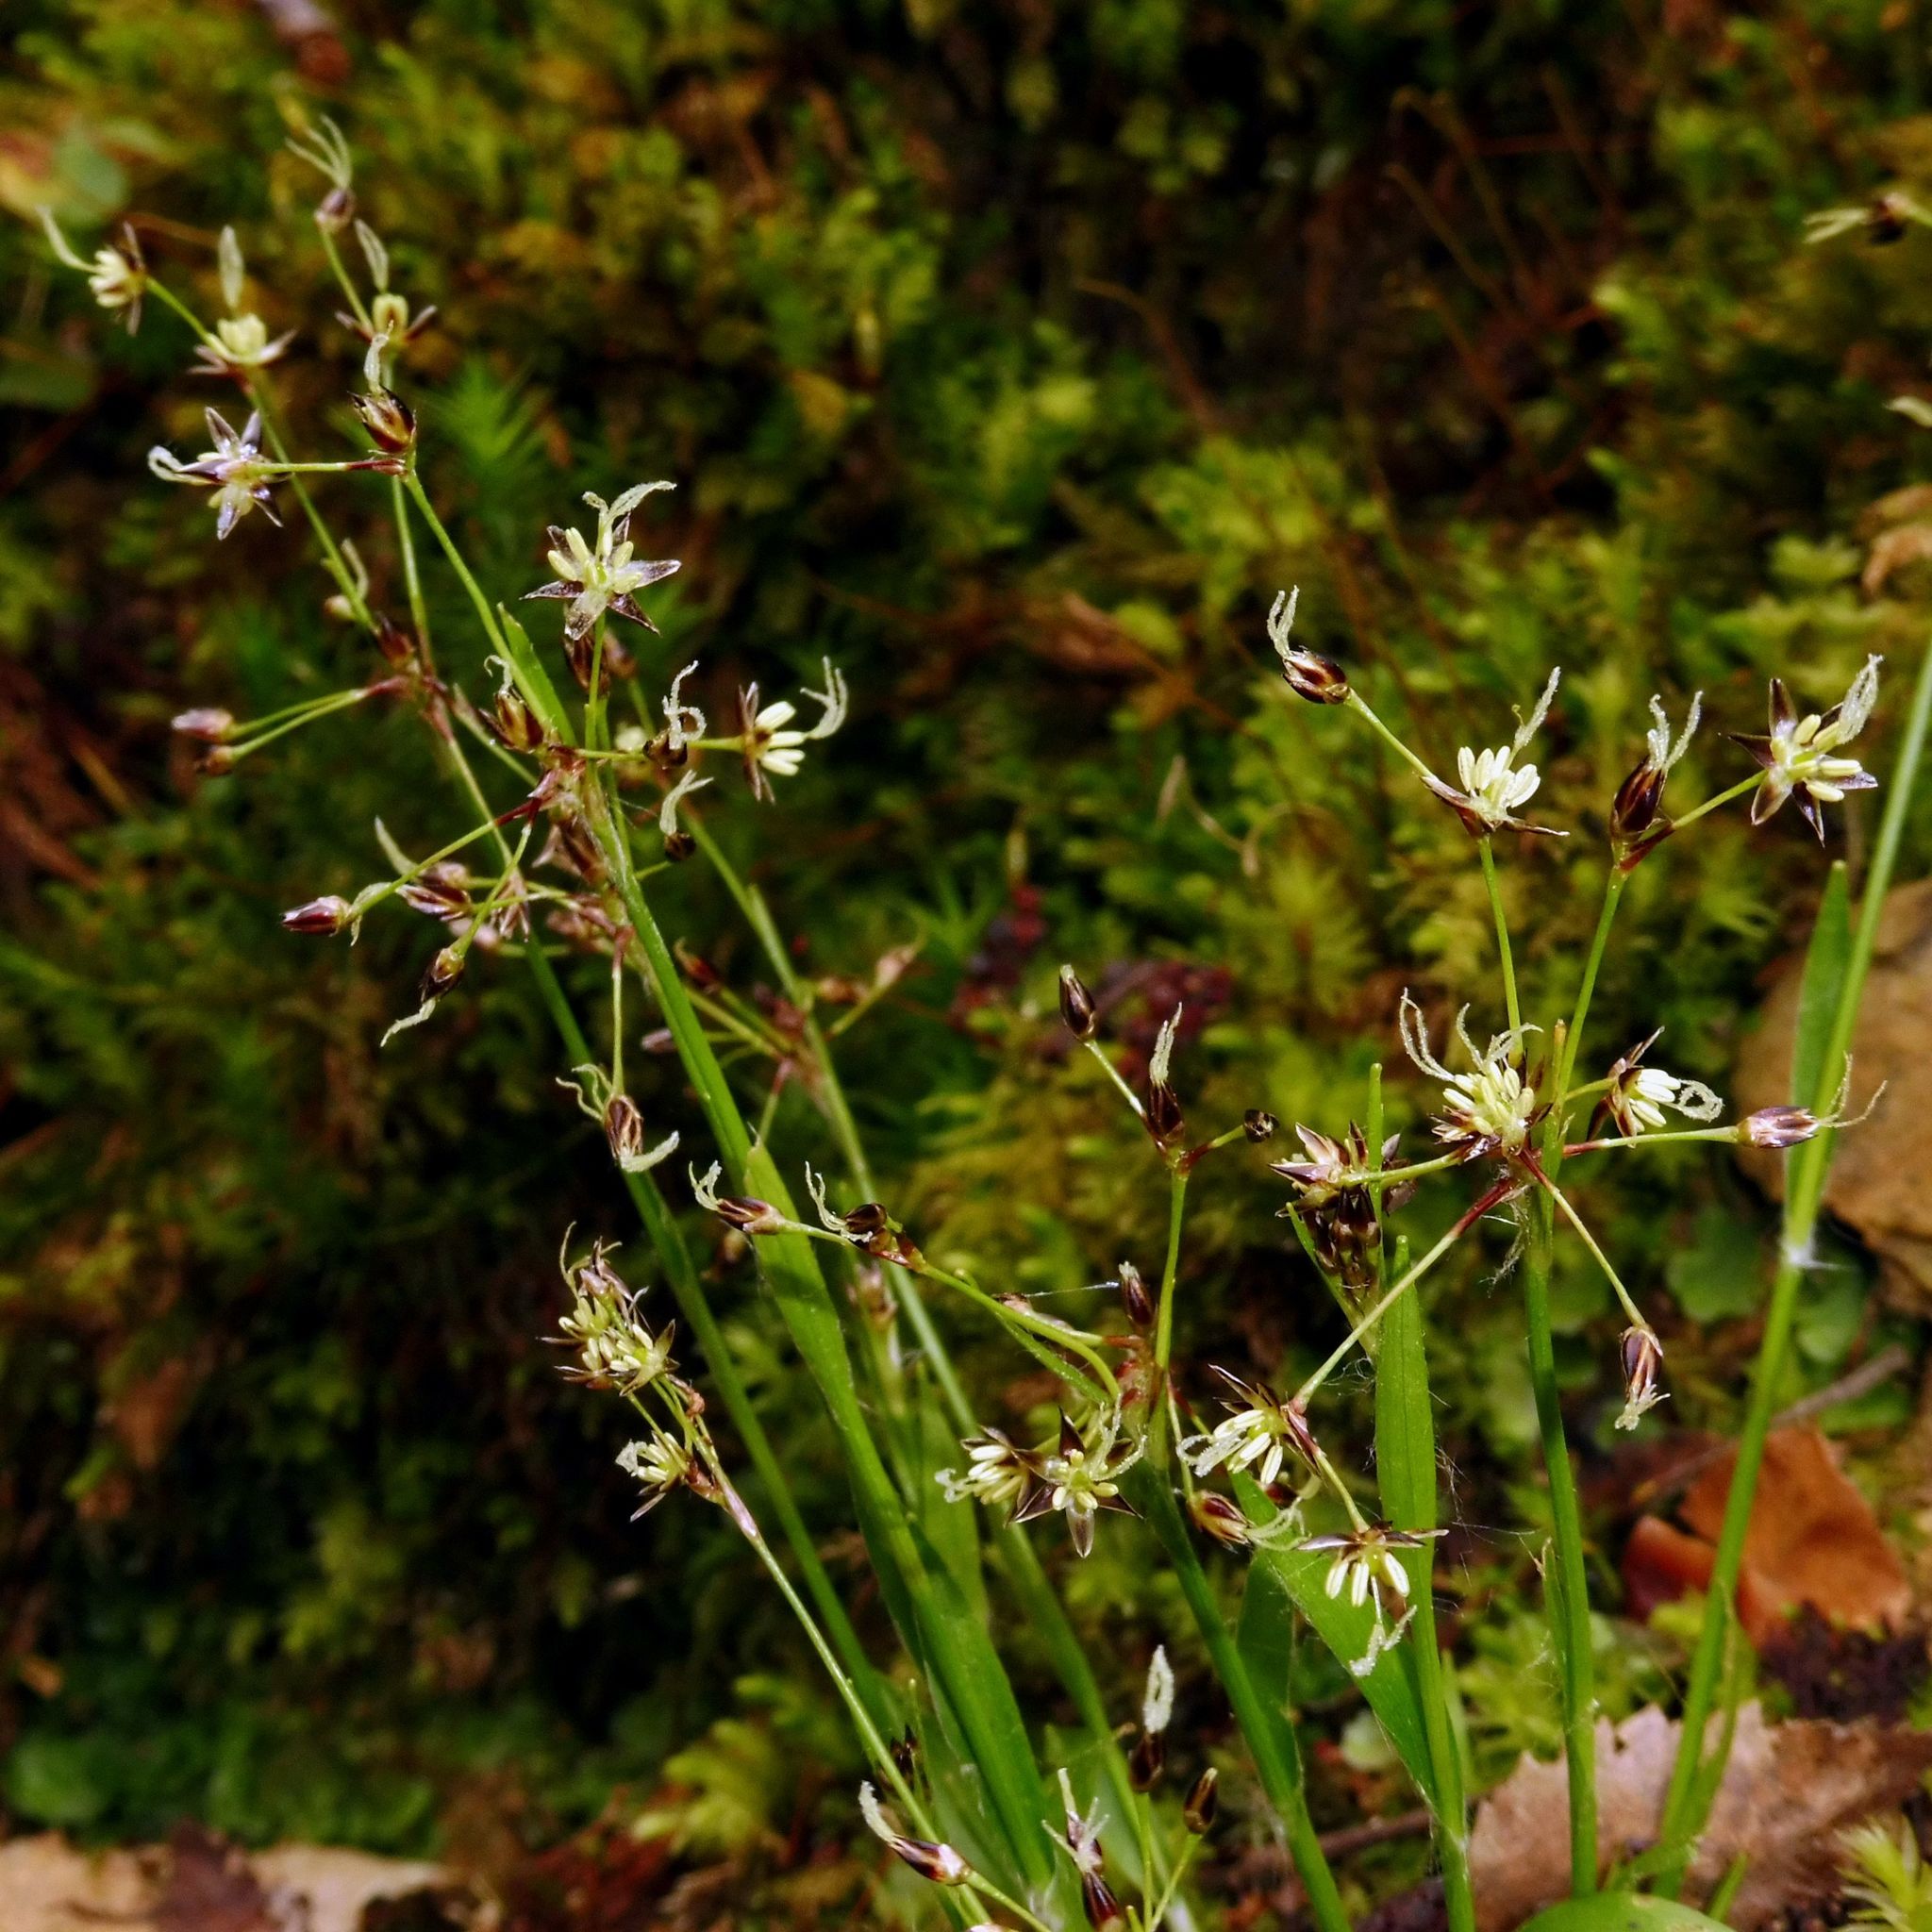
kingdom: Plantae
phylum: Tracheophyta
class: Liliopsida
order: Poales
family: Juncaceae
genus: Luzula
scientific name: Luzula pilosa
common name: Hairy wood-rush
